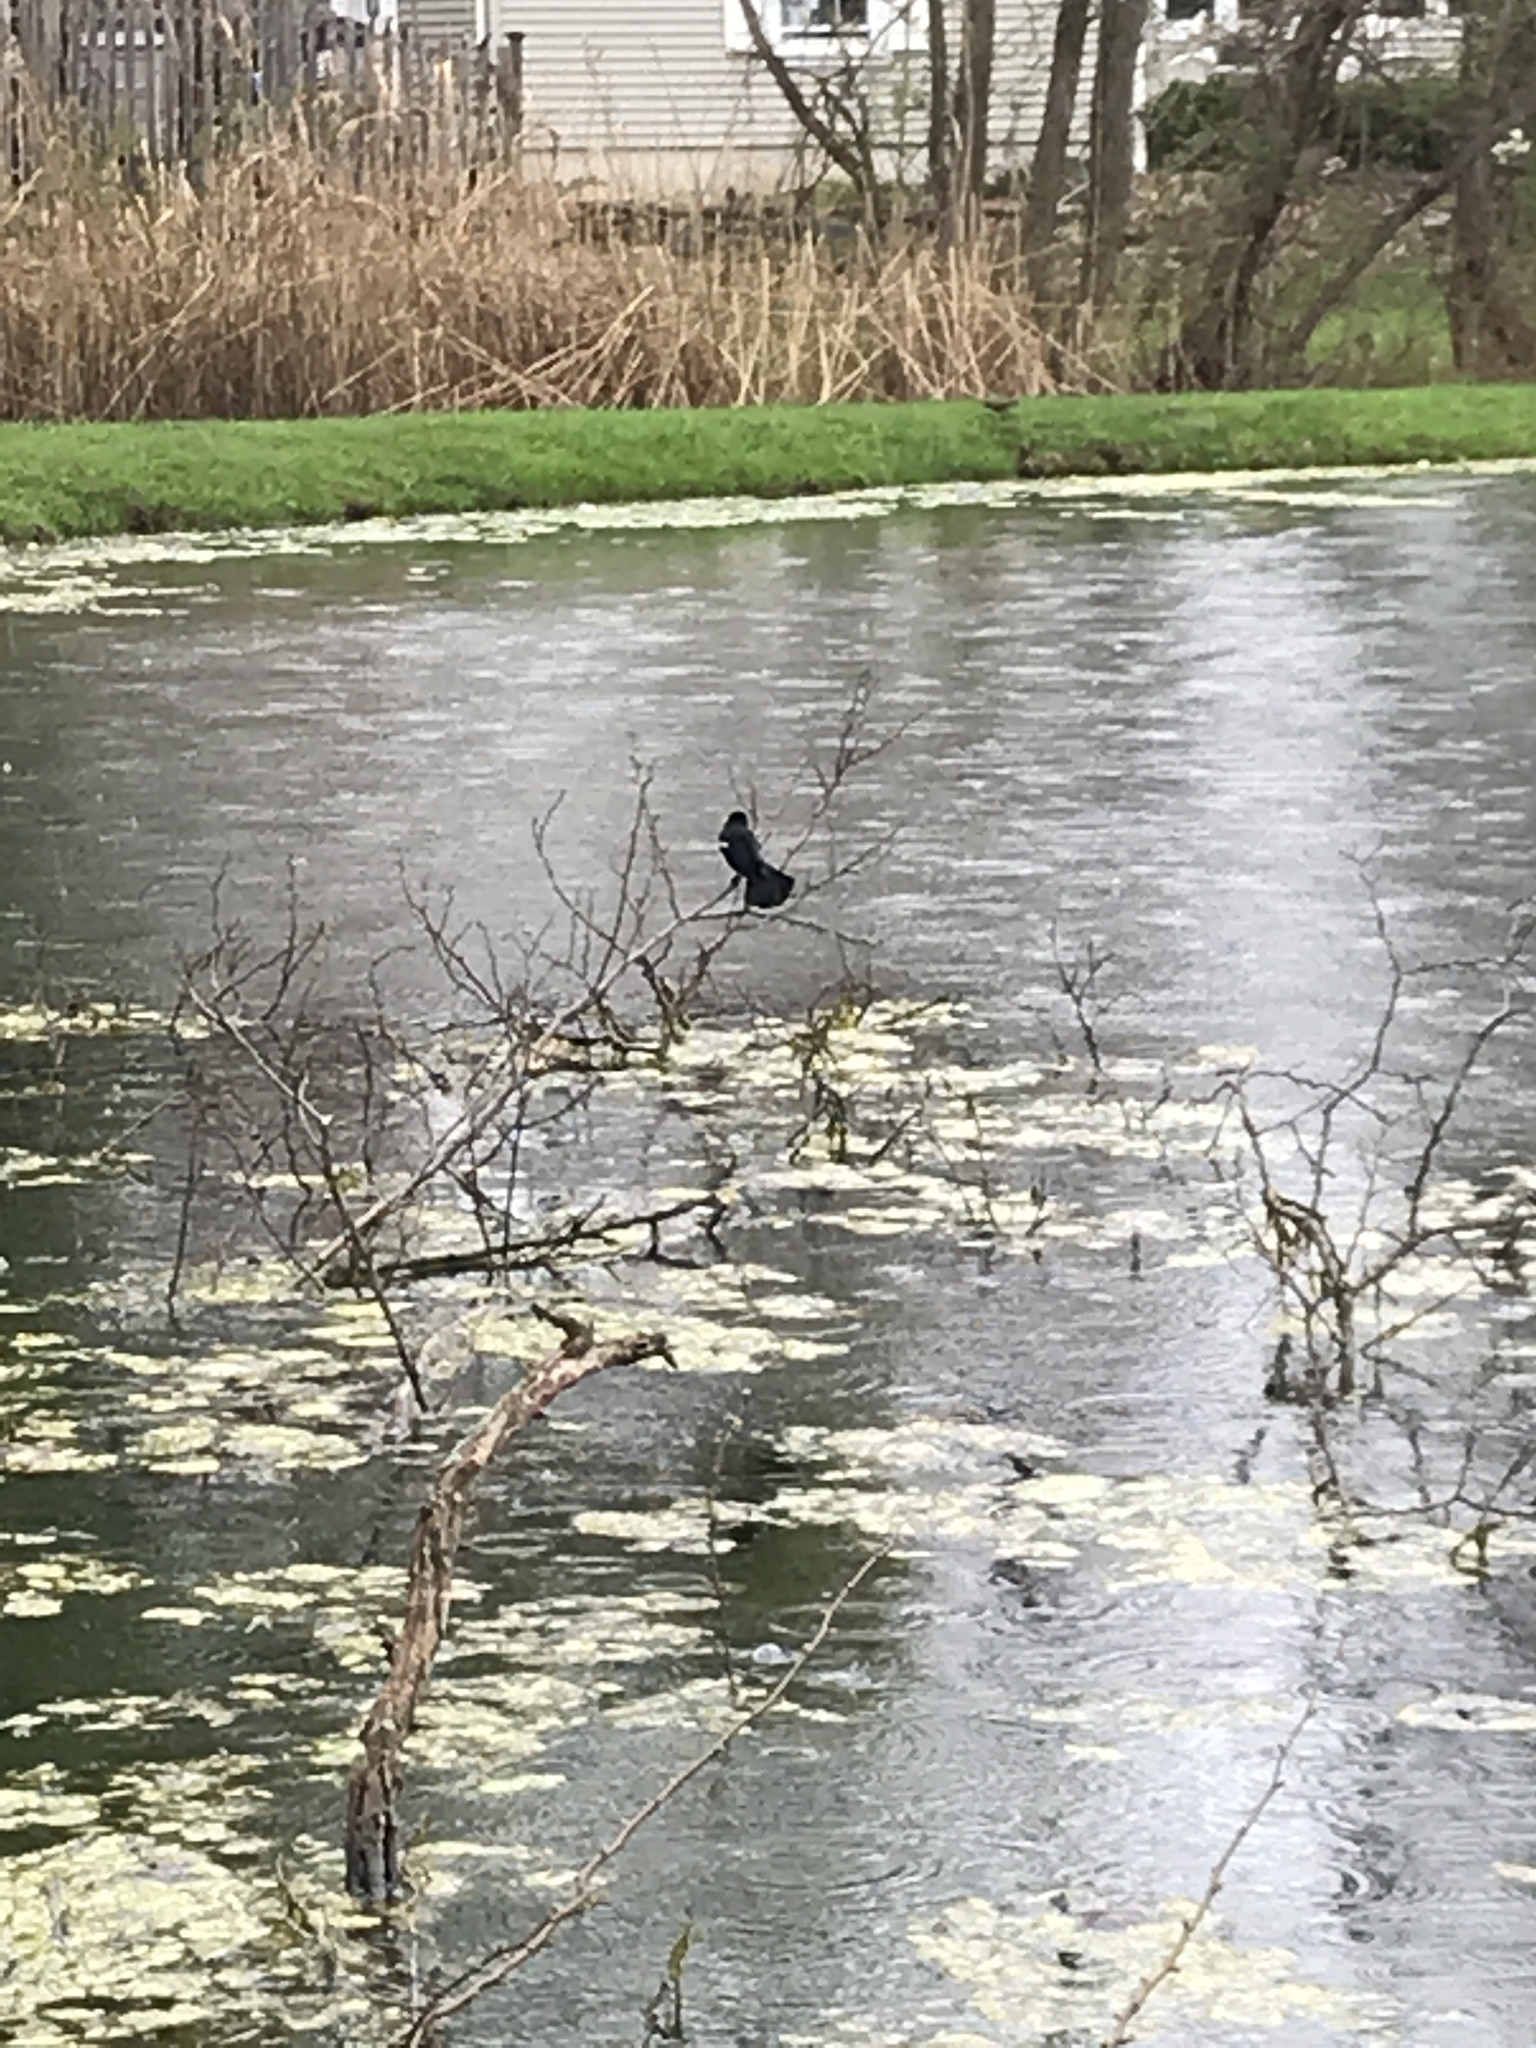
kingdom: Animalia
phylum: Chordata
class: Aves
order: Passeriformes
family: Icteridae
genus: Agelaius
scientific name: Agelaius phoeniceus
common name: Red-winged blackbird
